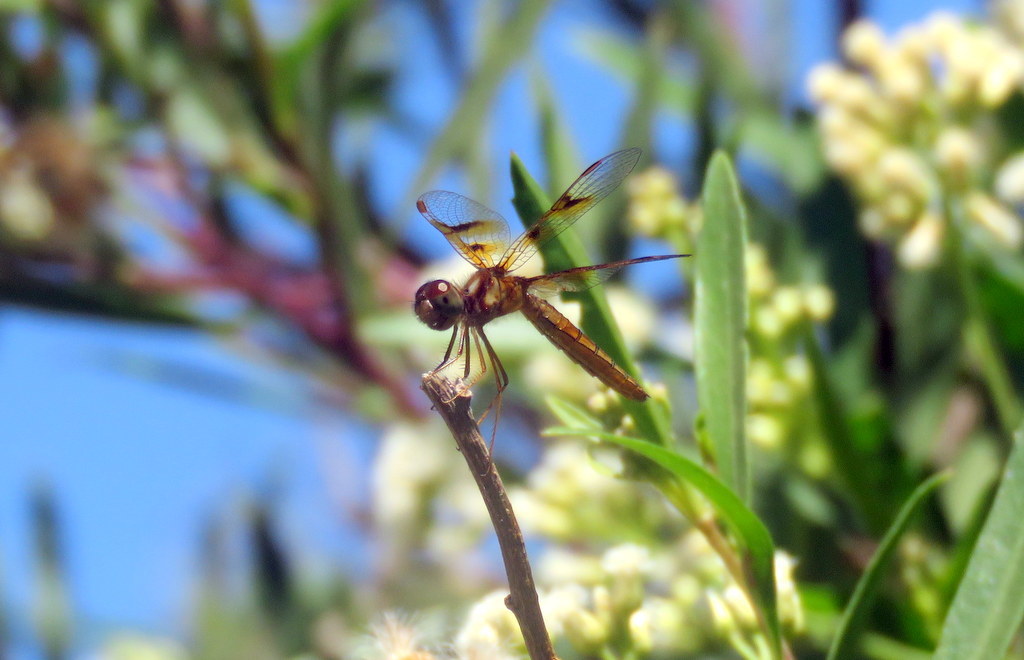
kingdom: Animalia
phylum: Arthropoda
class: Insecta
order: Odonata
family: Libellulidae
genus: Perithemis
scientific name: Perithemis tenera
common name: Eastern amberwing
